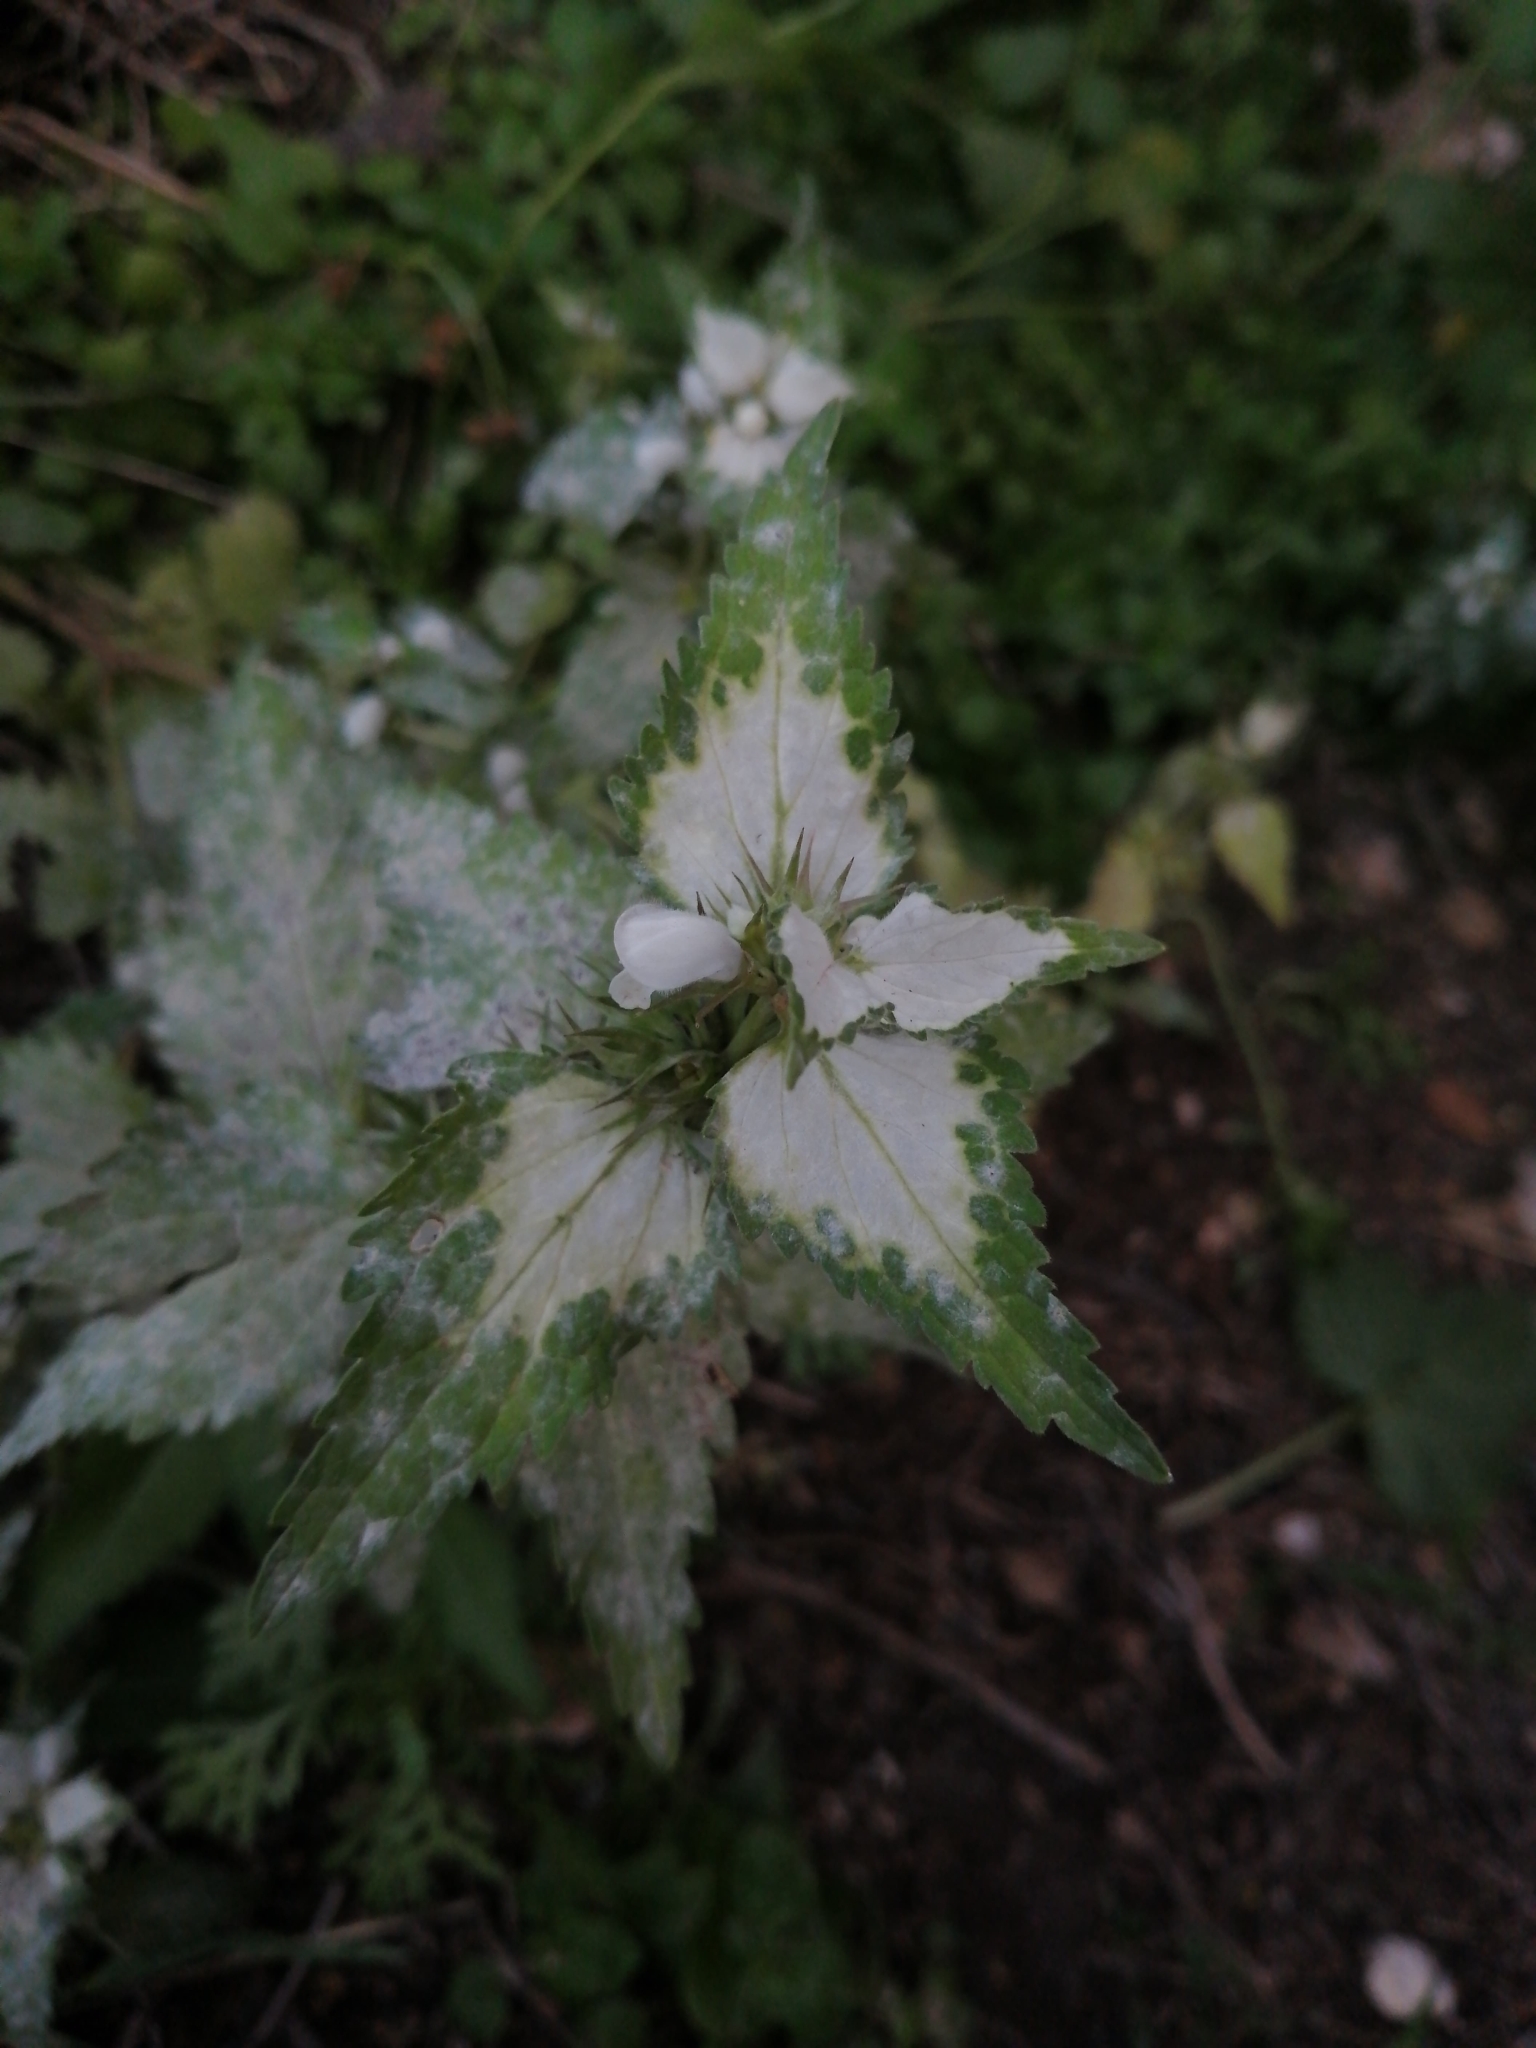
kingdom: Plantae
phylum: Tracheophyta
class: Magnoliopsida
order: Lamiales
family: Lamiaceae
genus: Lamium
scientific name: Lamium moschatum
